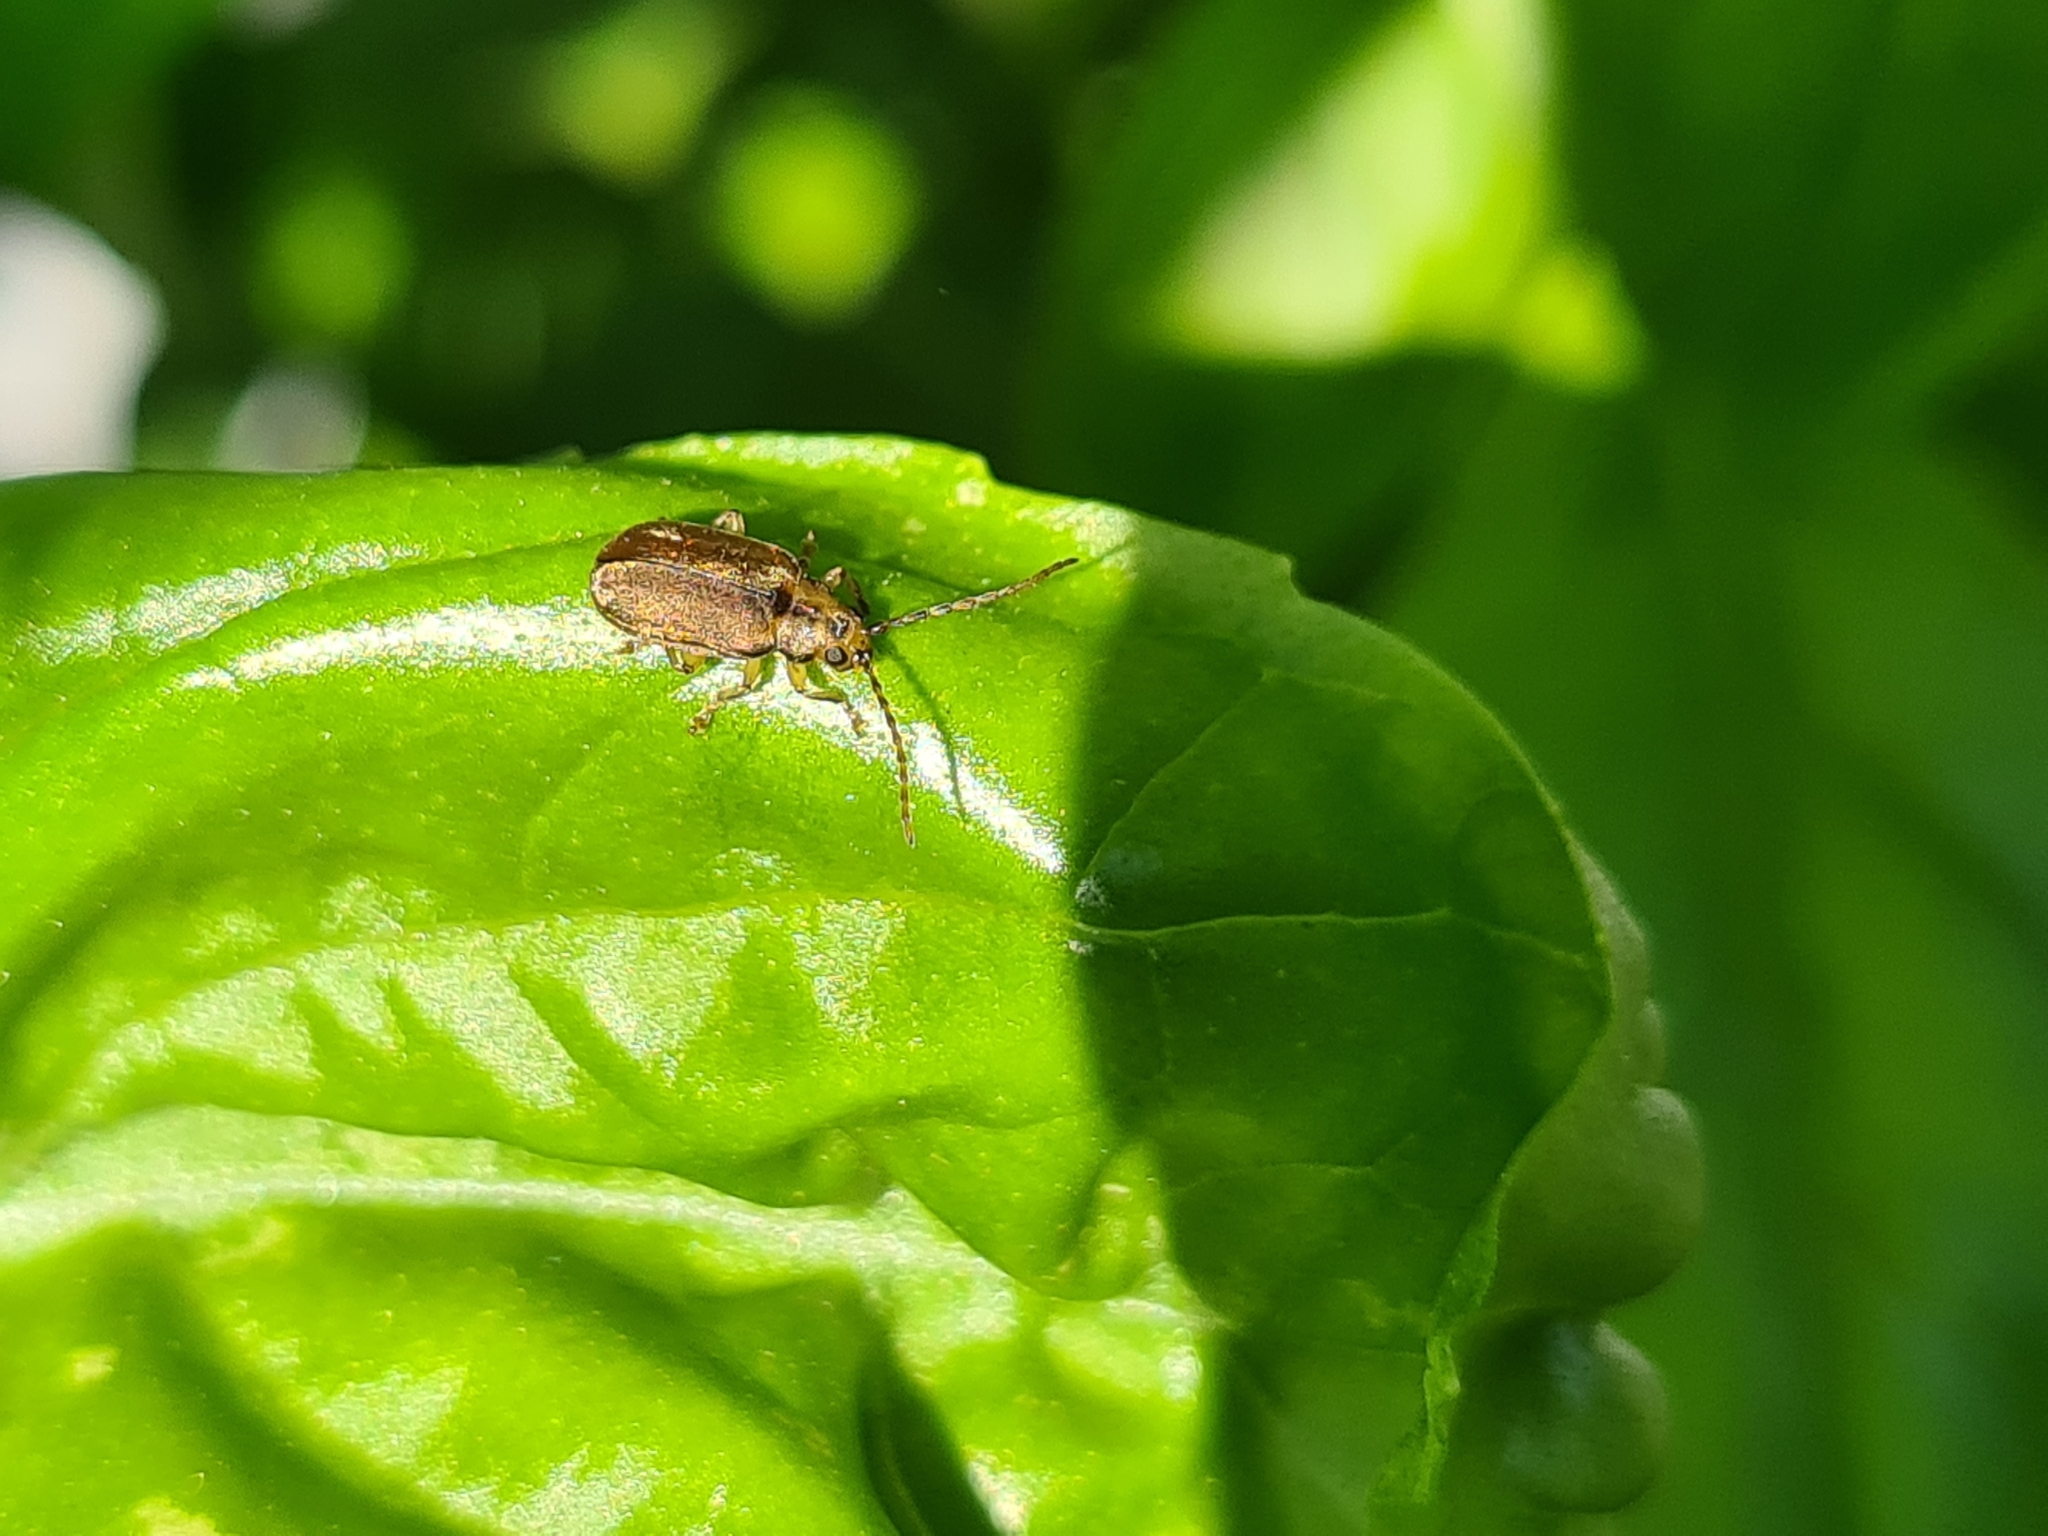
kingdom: Animalia
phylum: Arthropoda
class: Insecta
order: Coleoptera
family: Chrysomelidae
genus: Pyrrhalta
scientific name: Pyrrhalta viburni
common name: Guelder-rose leaf beetle
